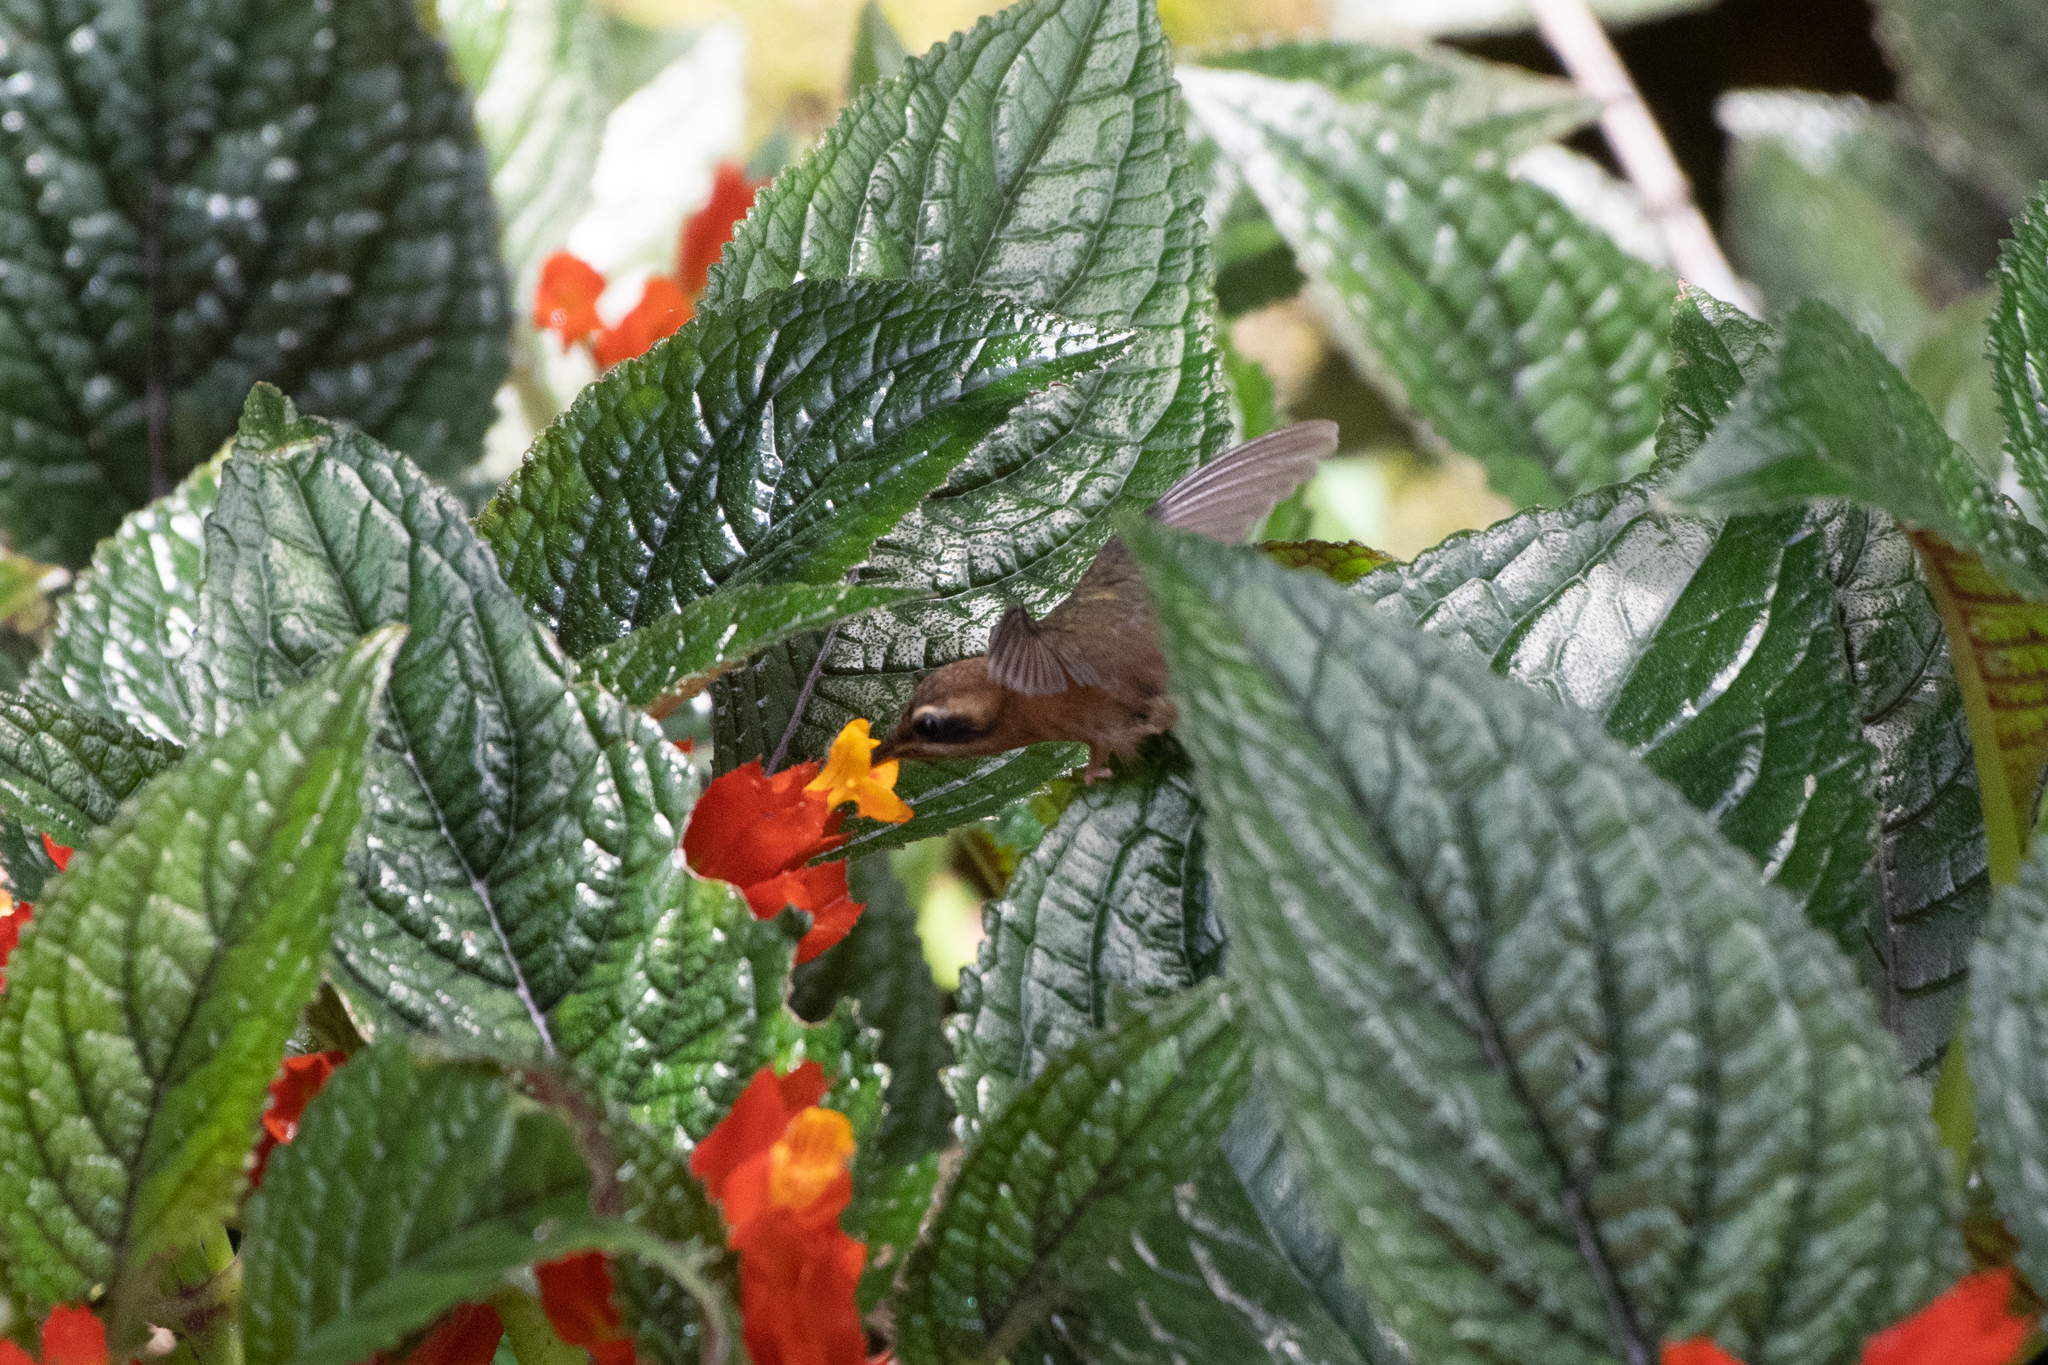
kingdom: Animalia
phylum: Chordata
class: Aves
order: Apodiformes
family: Trochilidae
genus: Phaethornis
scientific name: Phaethornis striigularis
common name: Stripe-throated hermit
